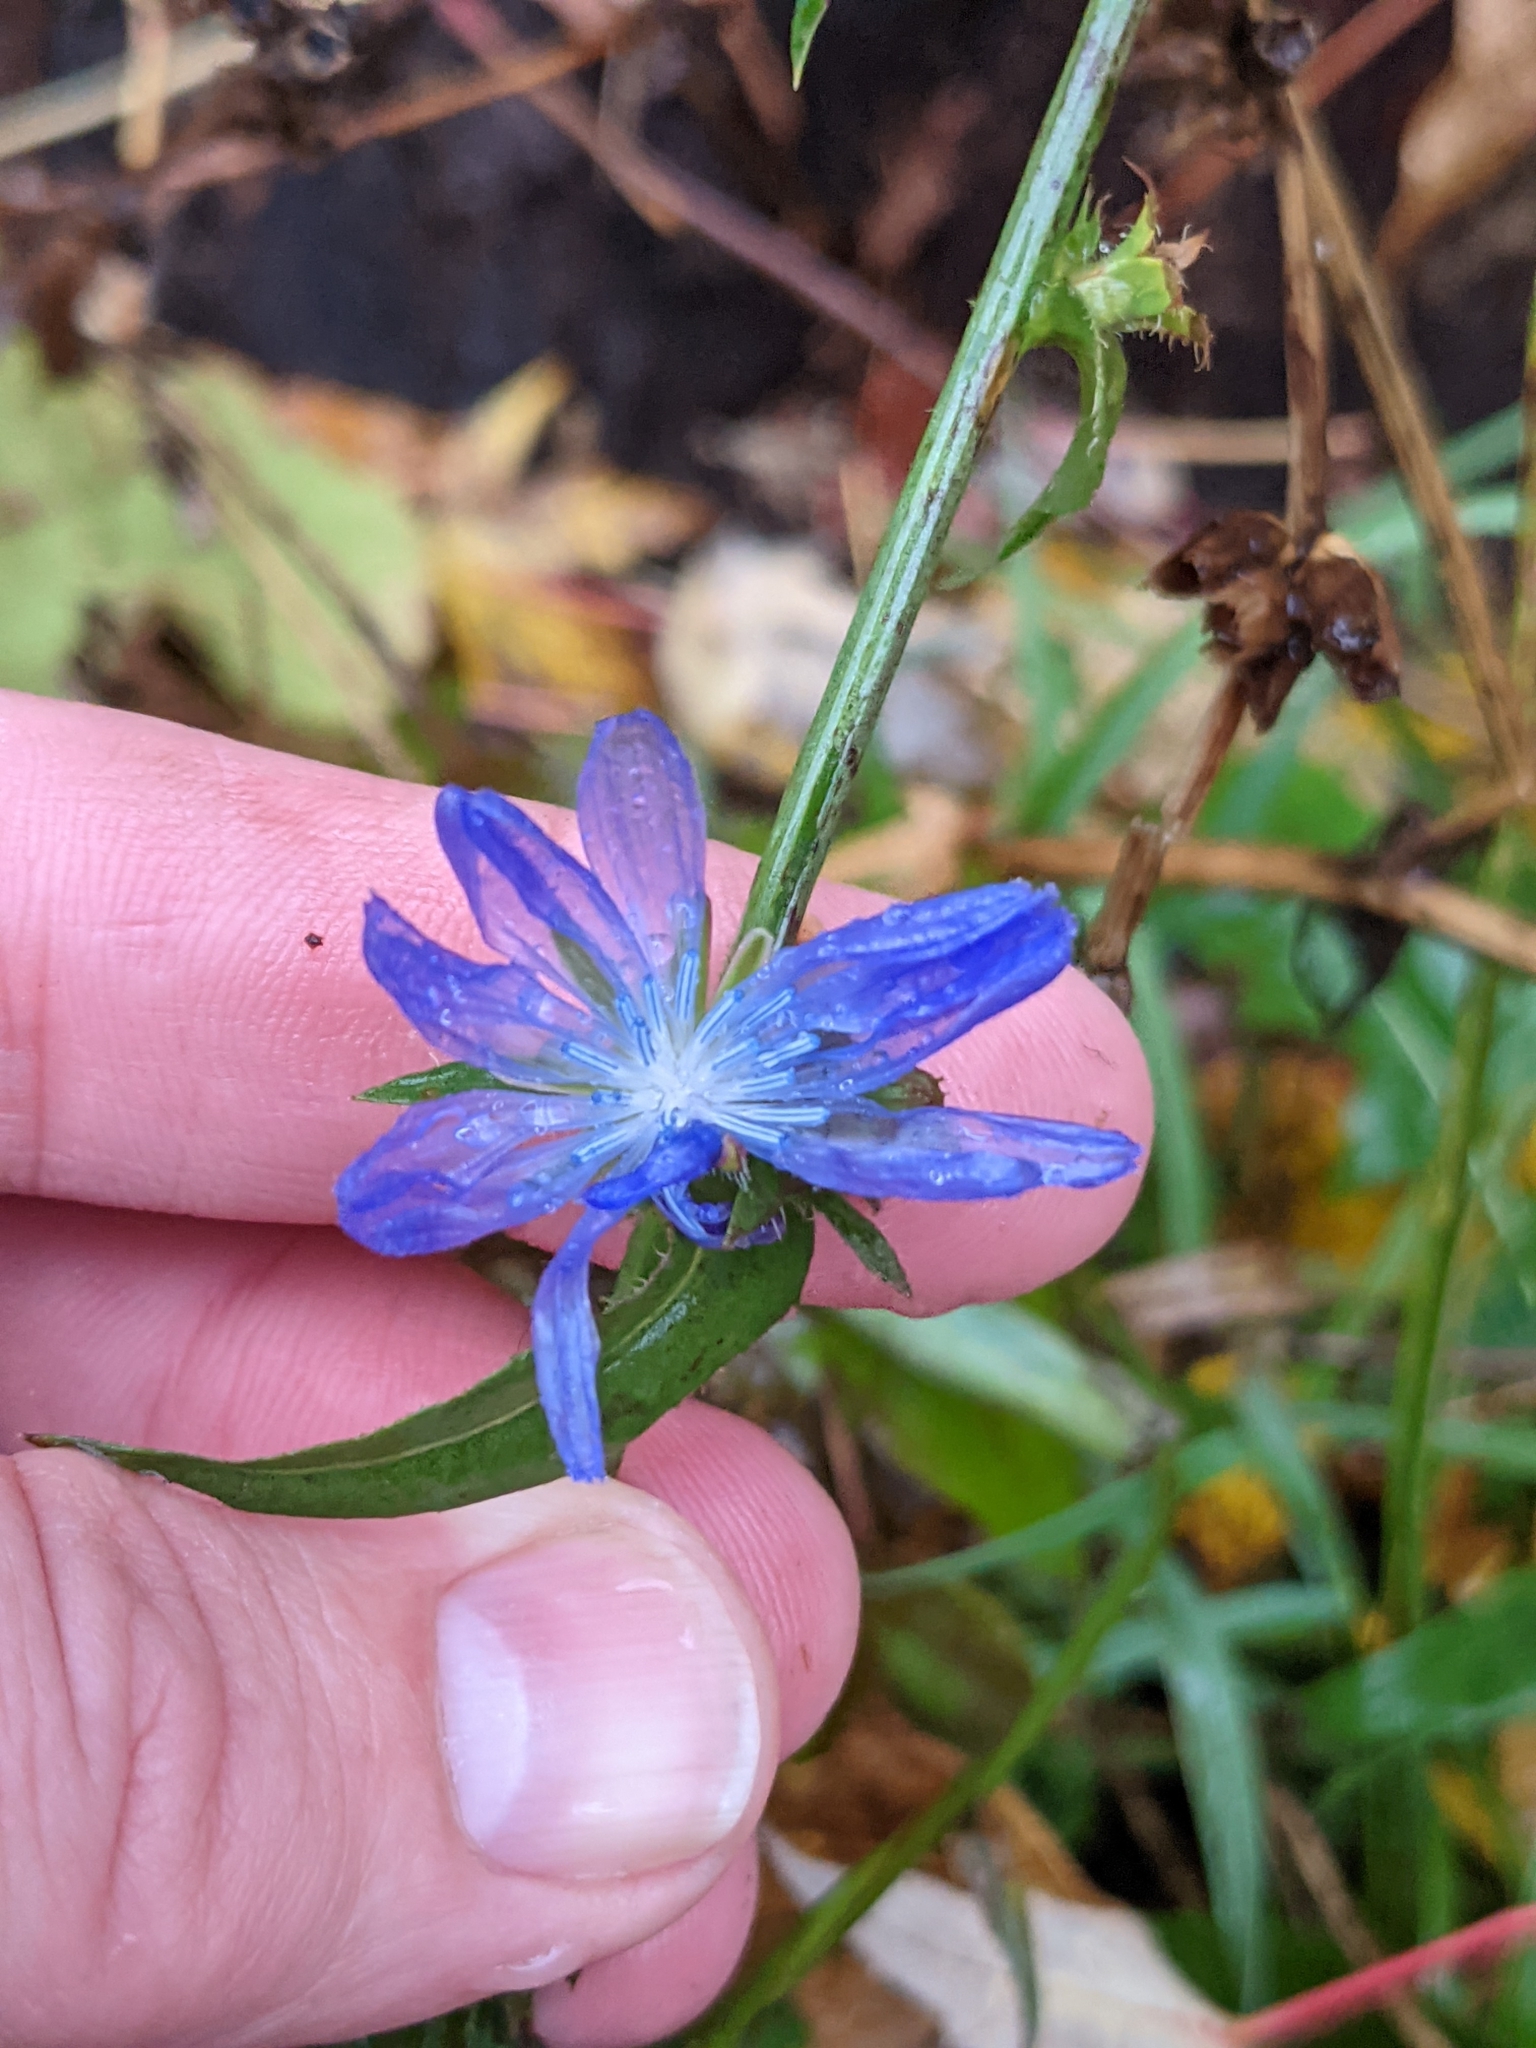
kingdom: Plantae
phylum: Tracheophyta
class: Magnoliopsida
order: Asterales
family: Asteraceae
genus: Cichorium
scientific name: Cichorium intybus
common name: Chicory
